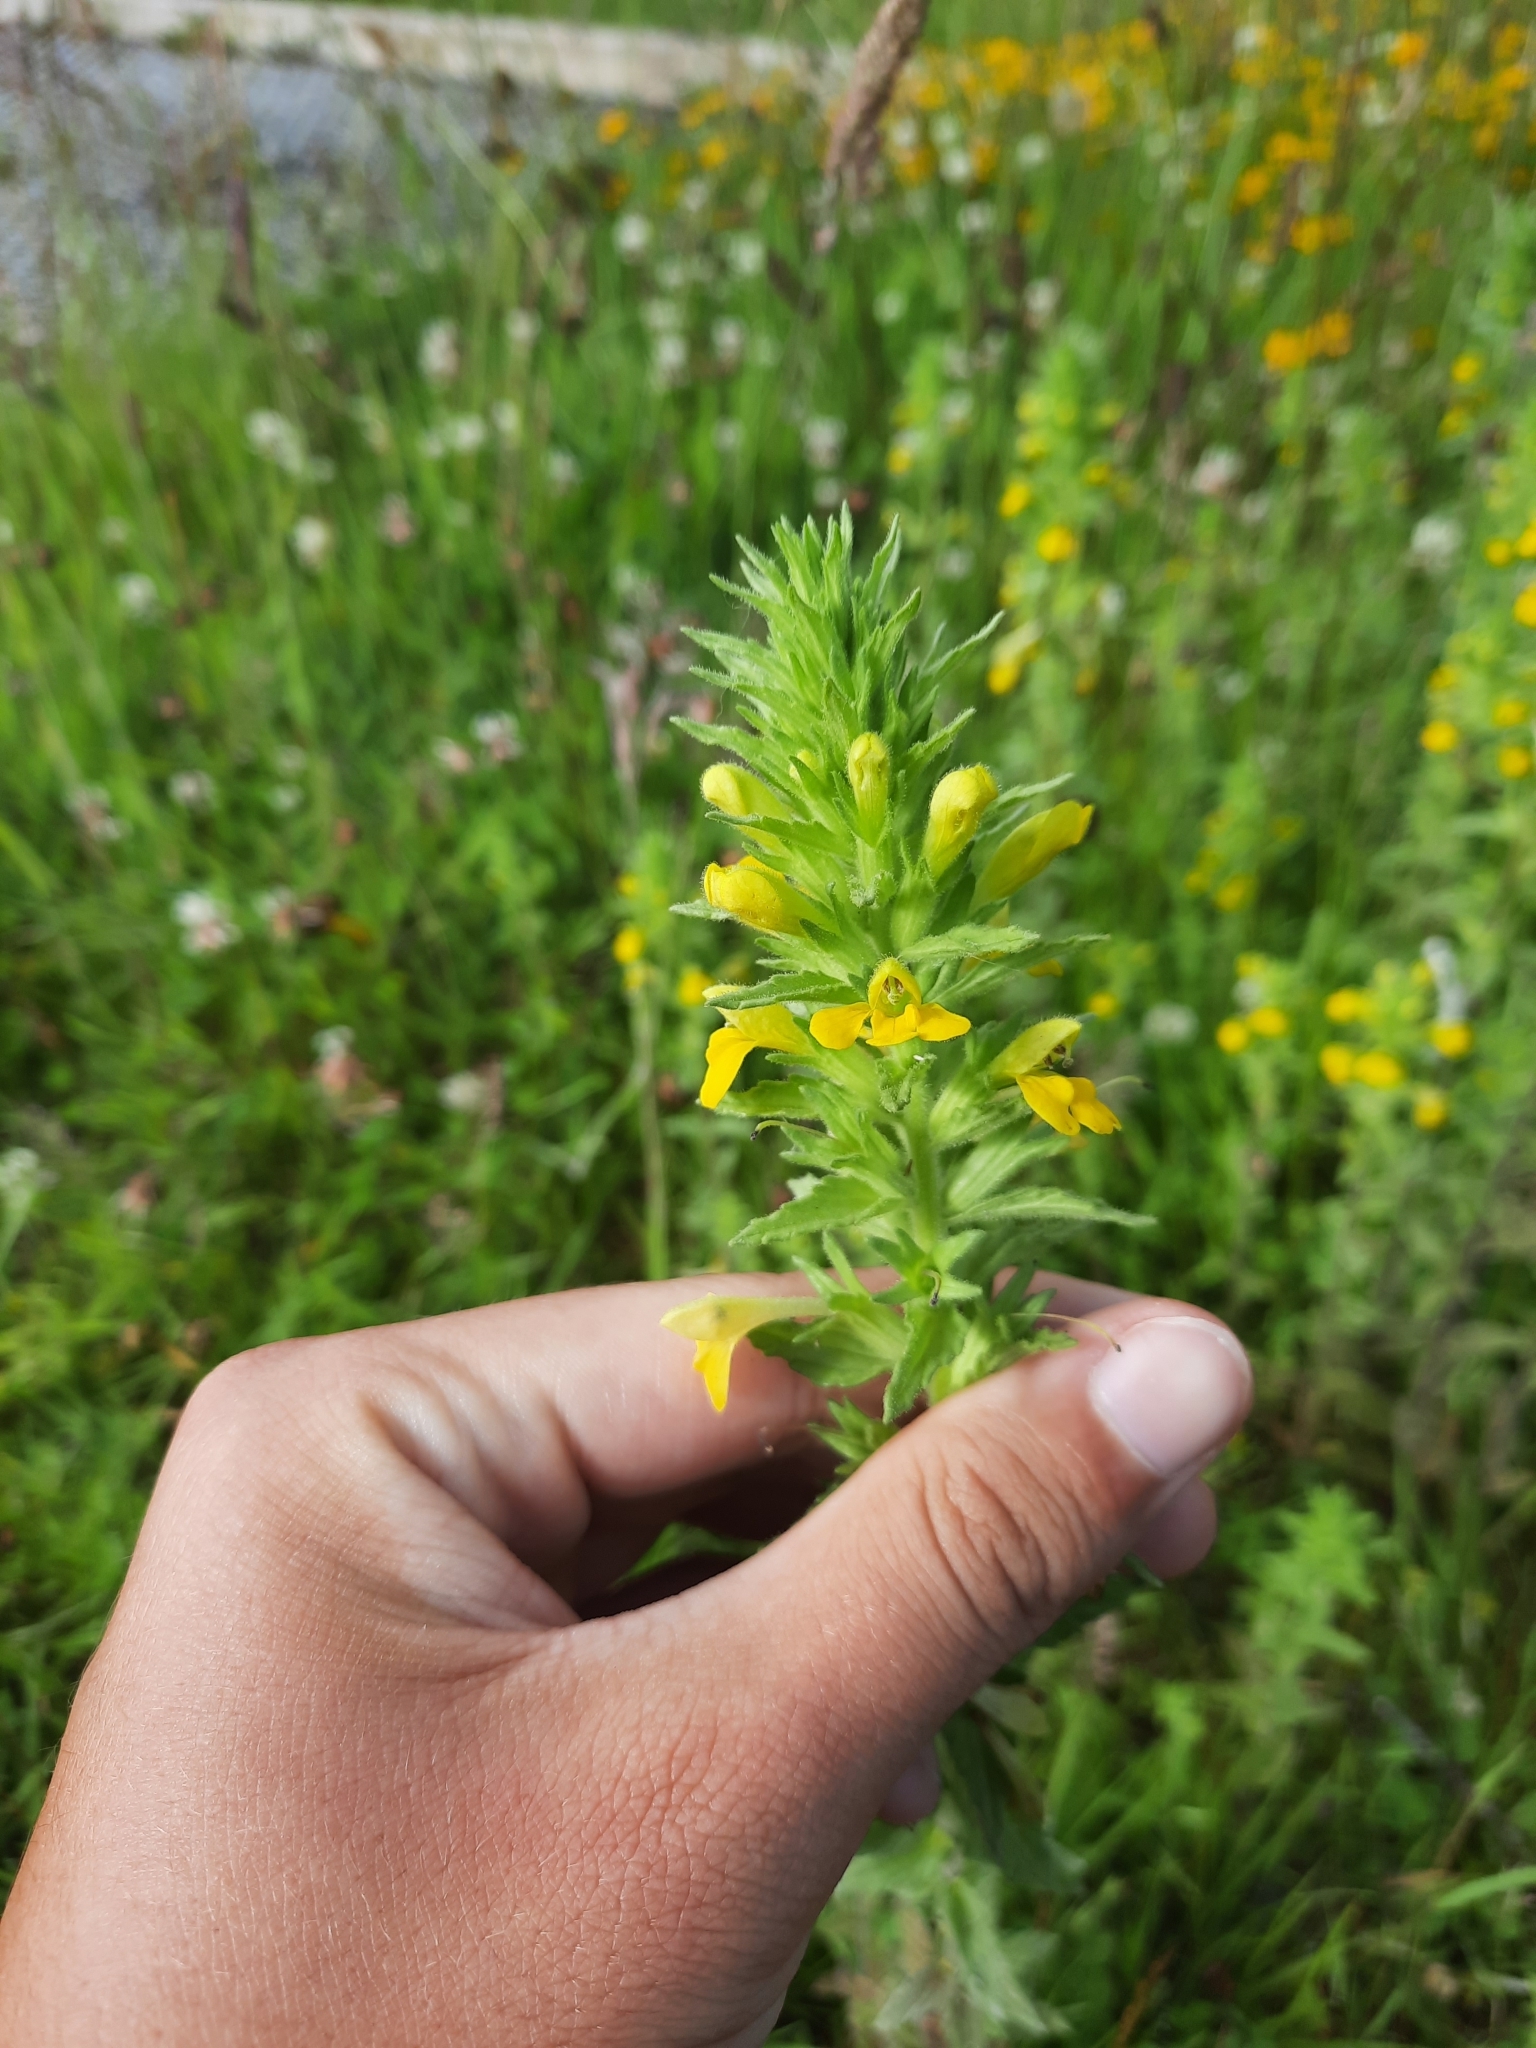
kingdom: Plantae
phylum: Tracheophyta
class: Magnoliopsida
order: Lamiales
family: Orobanchaceae
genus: Bellardia
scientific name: Bellardia viscosa
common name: Sticky parentucellia
